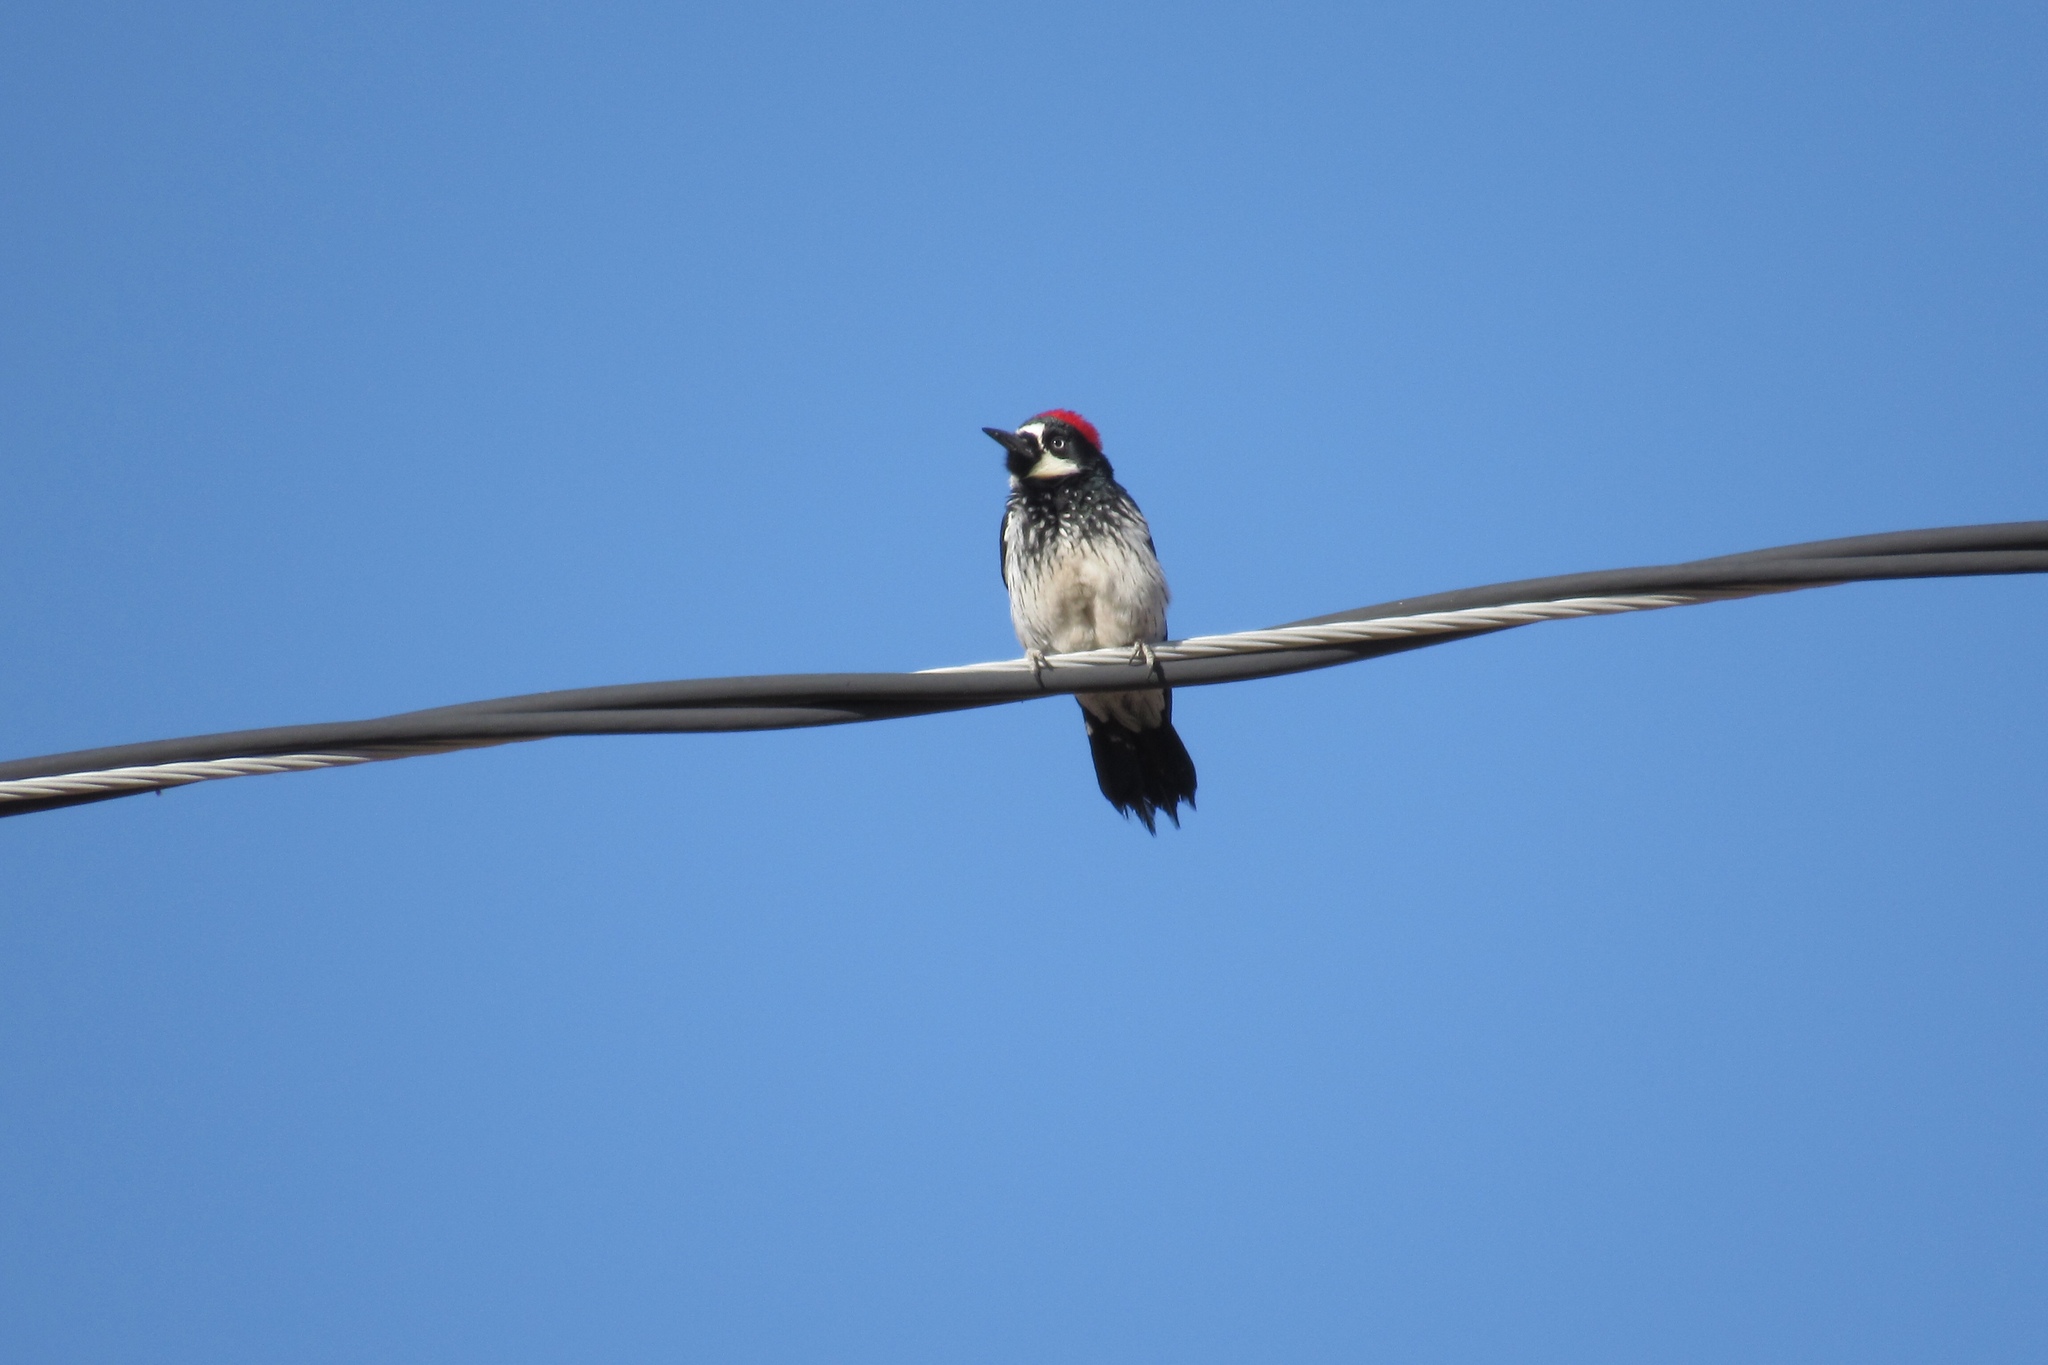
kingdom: Animalia
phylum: Chordata
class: Aves
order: Piciformes
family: Picidae
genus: Melanerpes
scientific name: Melanerpes formicivorus
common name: Acorn woodpecker
